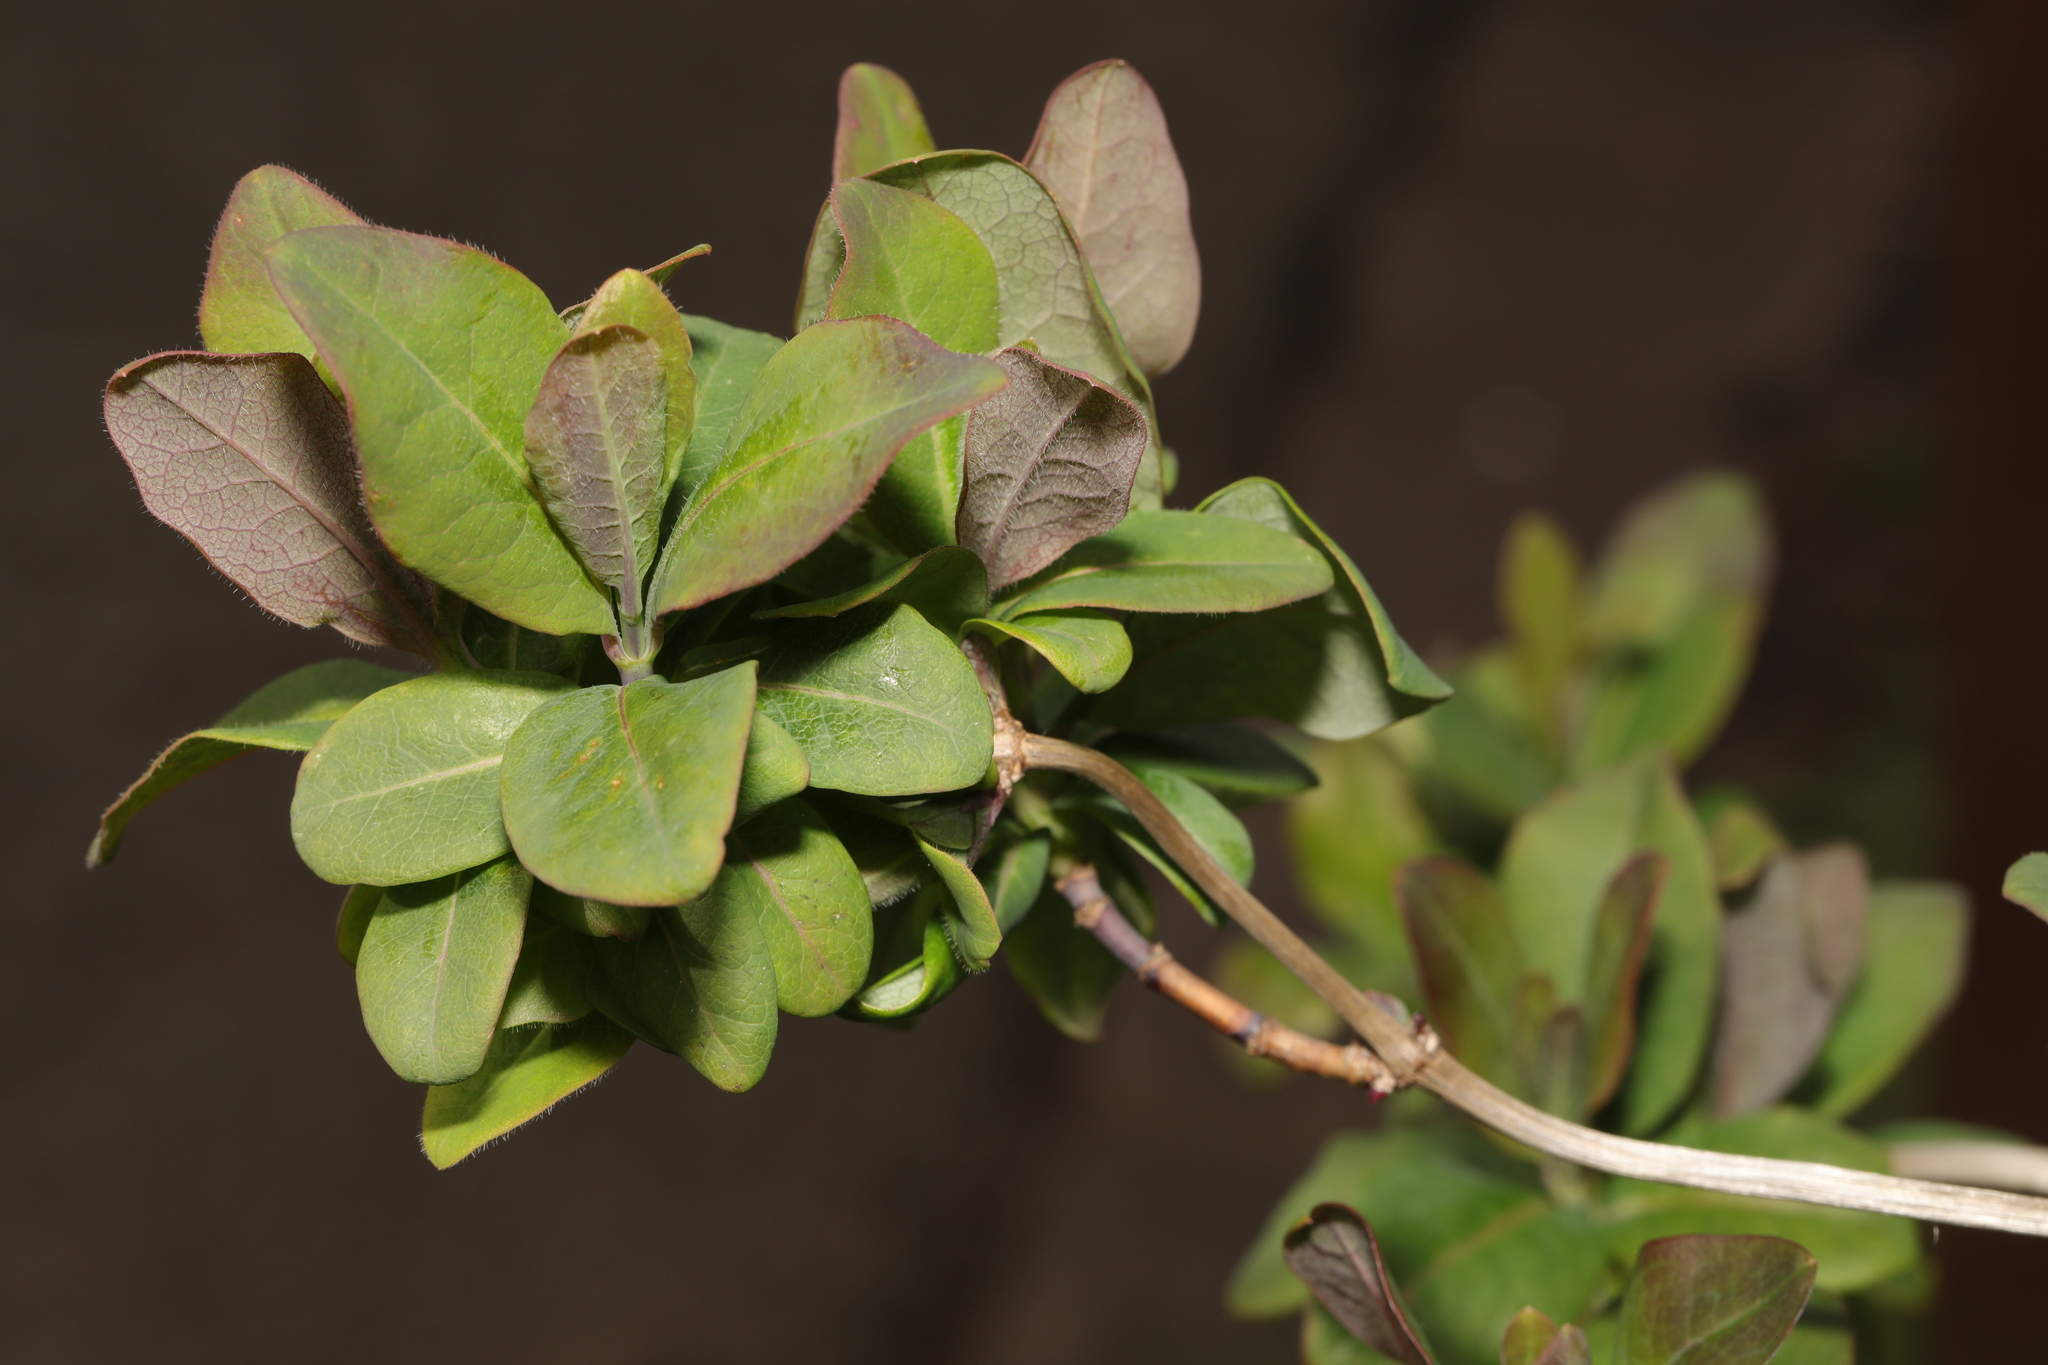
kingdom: Plantae
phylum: Tracheophyta
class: Magnoliopsida
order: Dipsacales
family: Caprifoliaceae
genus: Lonicera
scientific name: Lonicera periclymenum
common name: European honeysuckle
